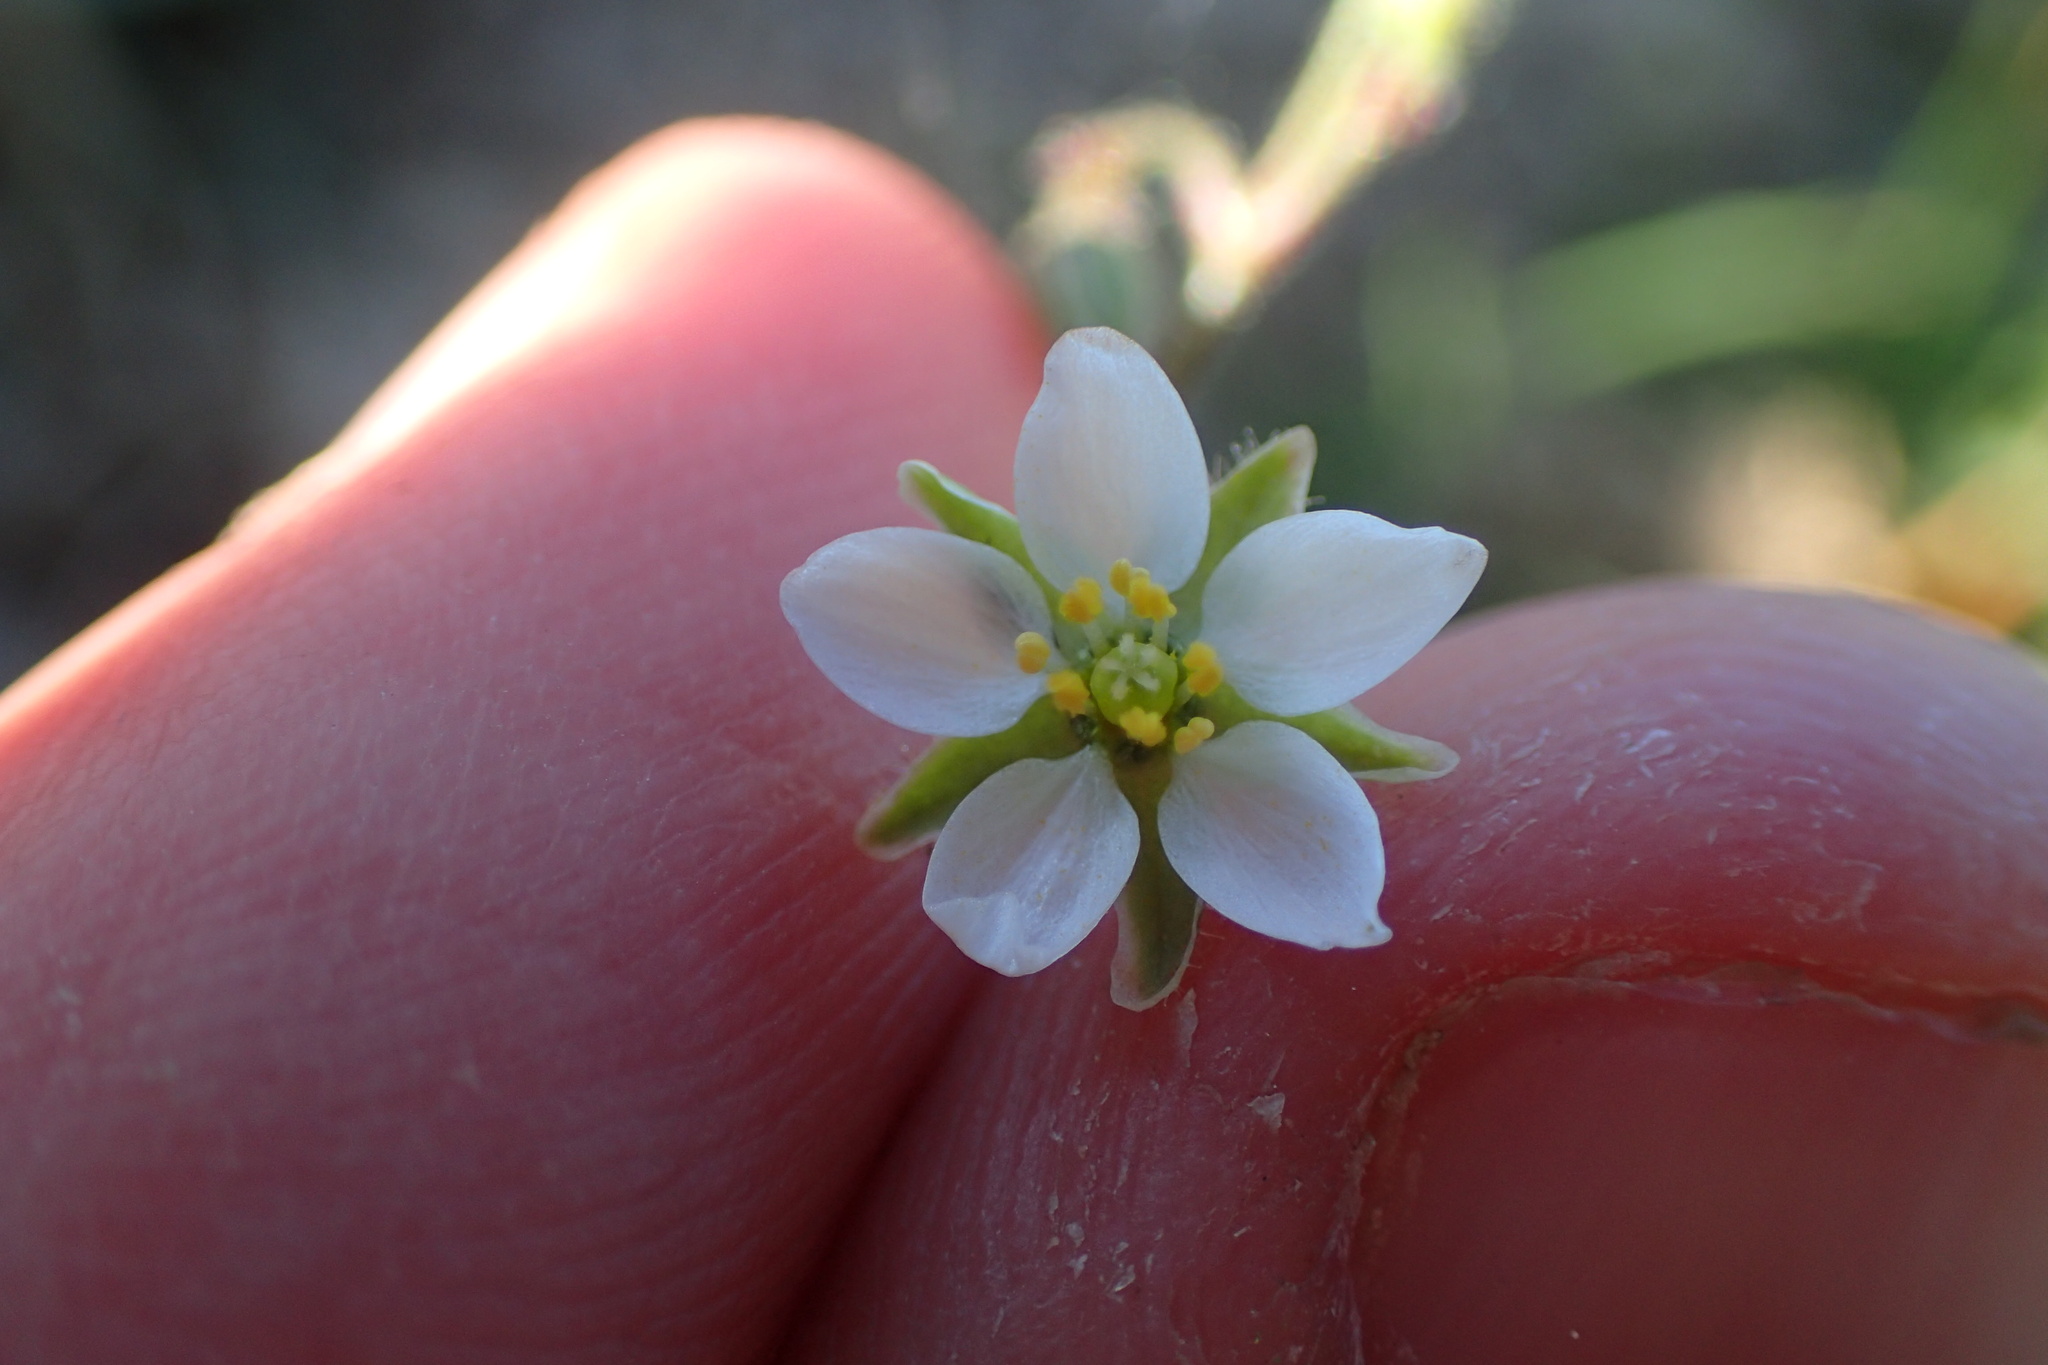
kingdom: Plantae
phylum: Tracheophyta
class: Magnoliopsida
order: Caryophyllales
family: Caryophyllaceae
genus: Spergula
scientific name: Spergula arvensis
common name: Corn spurrey
